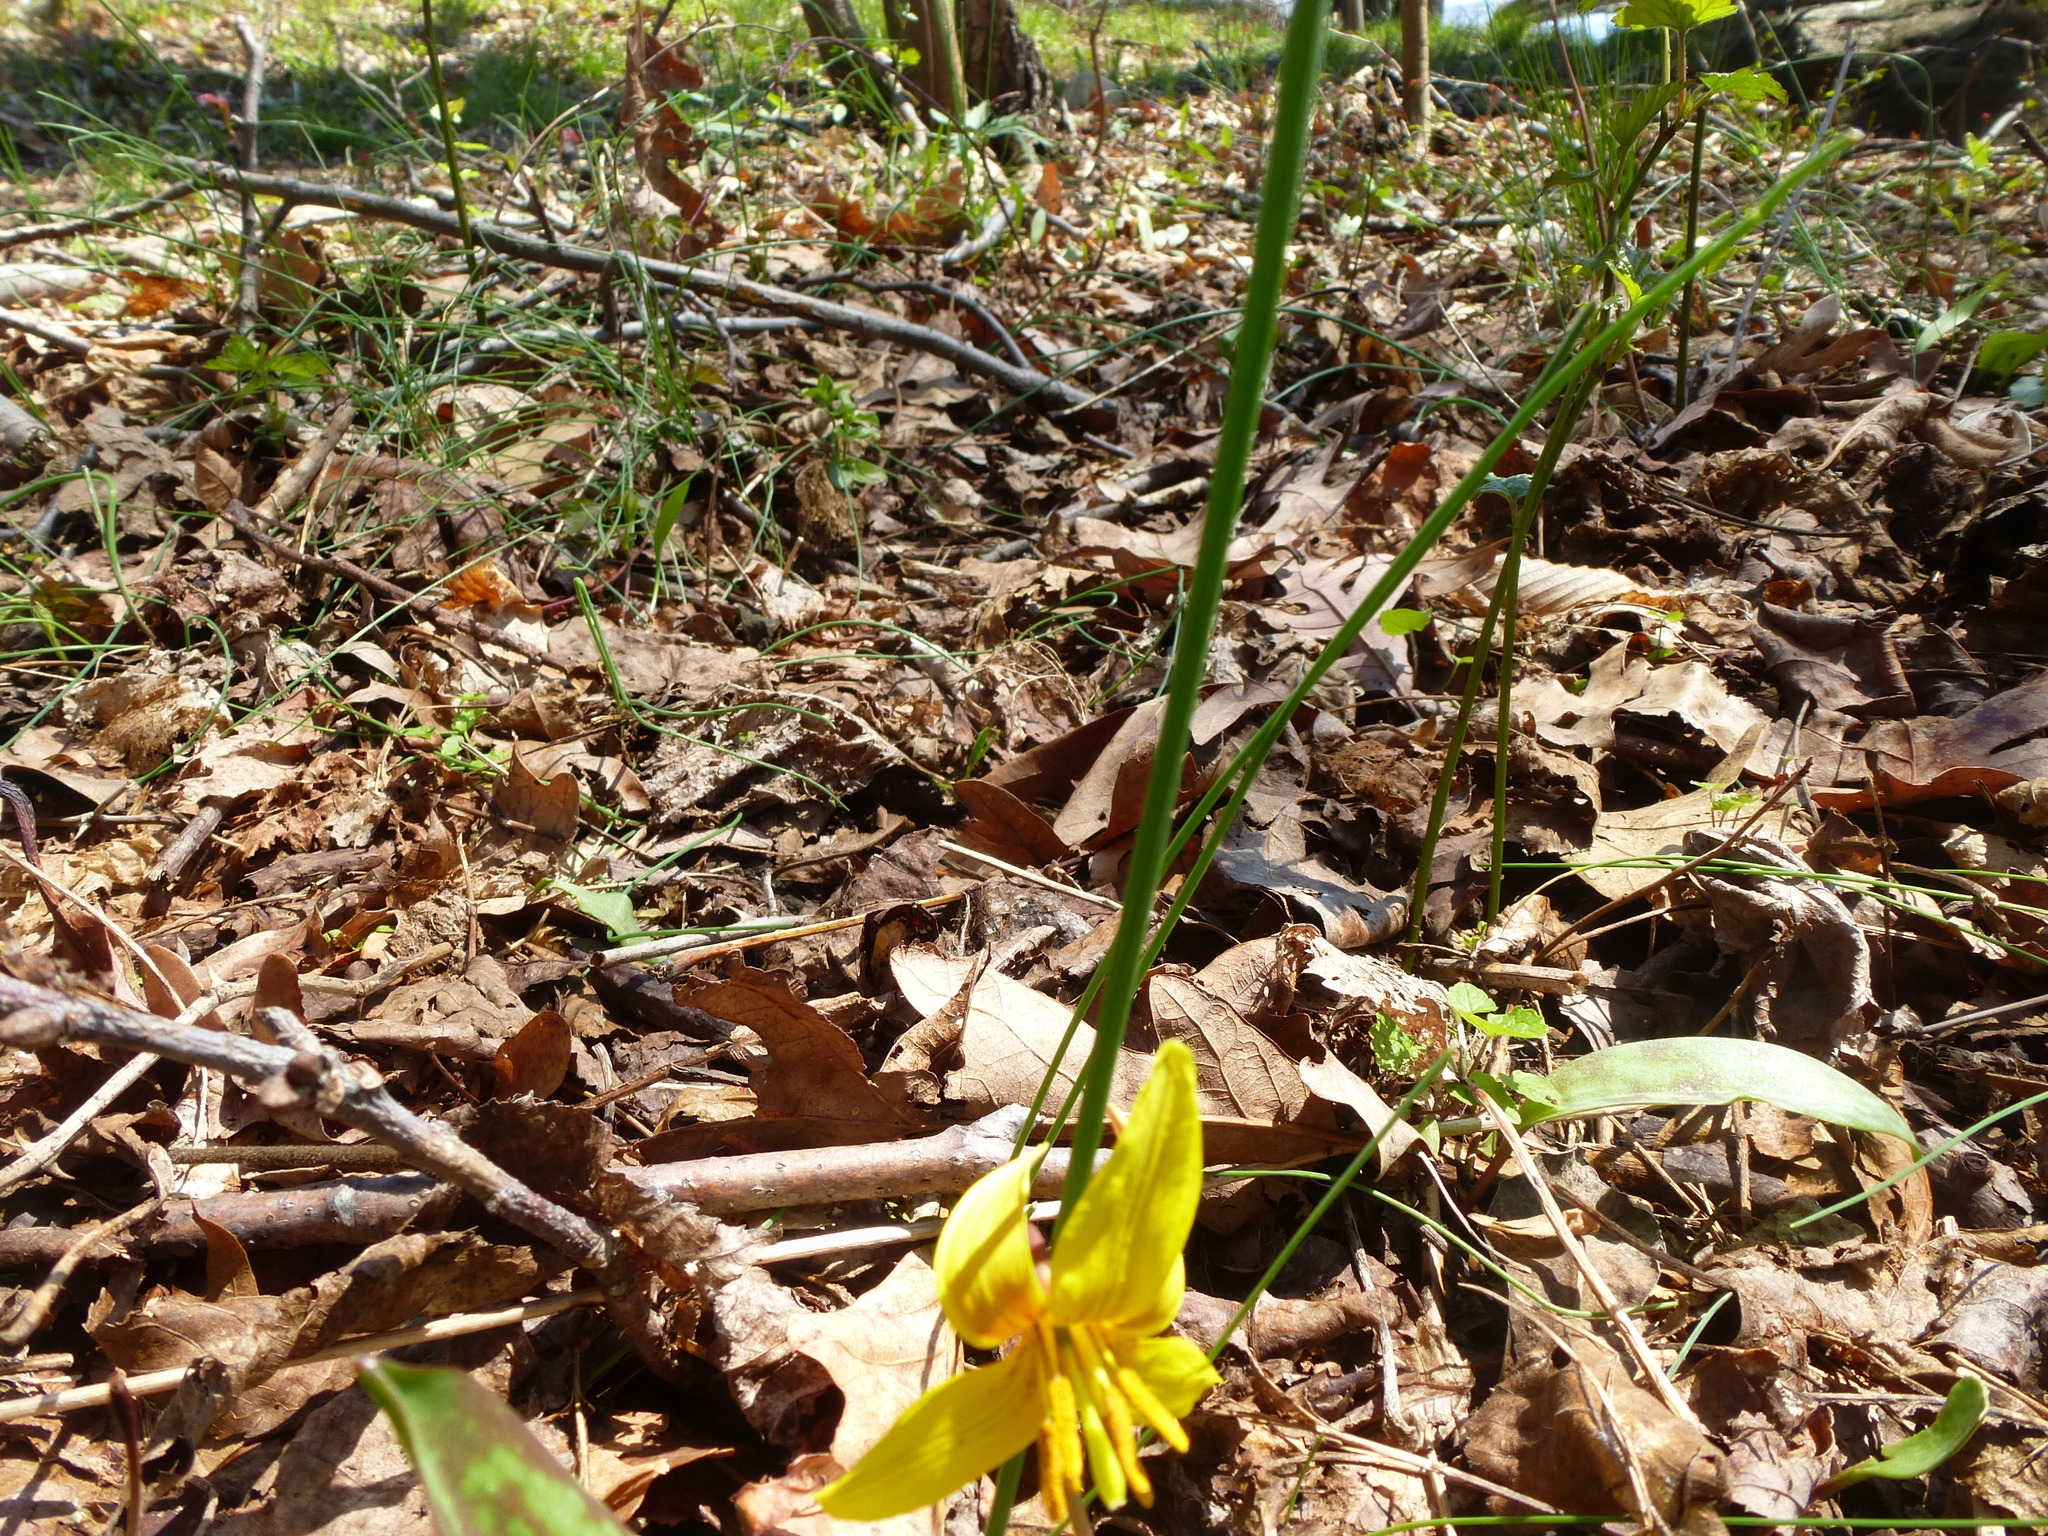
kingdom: Plantae
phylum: Tracheophyta
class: Liliopsida
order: Liliales
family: Liliaceae
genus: Erythronium
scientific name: Erythronium americanum
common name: Yellow adder's-tongue
